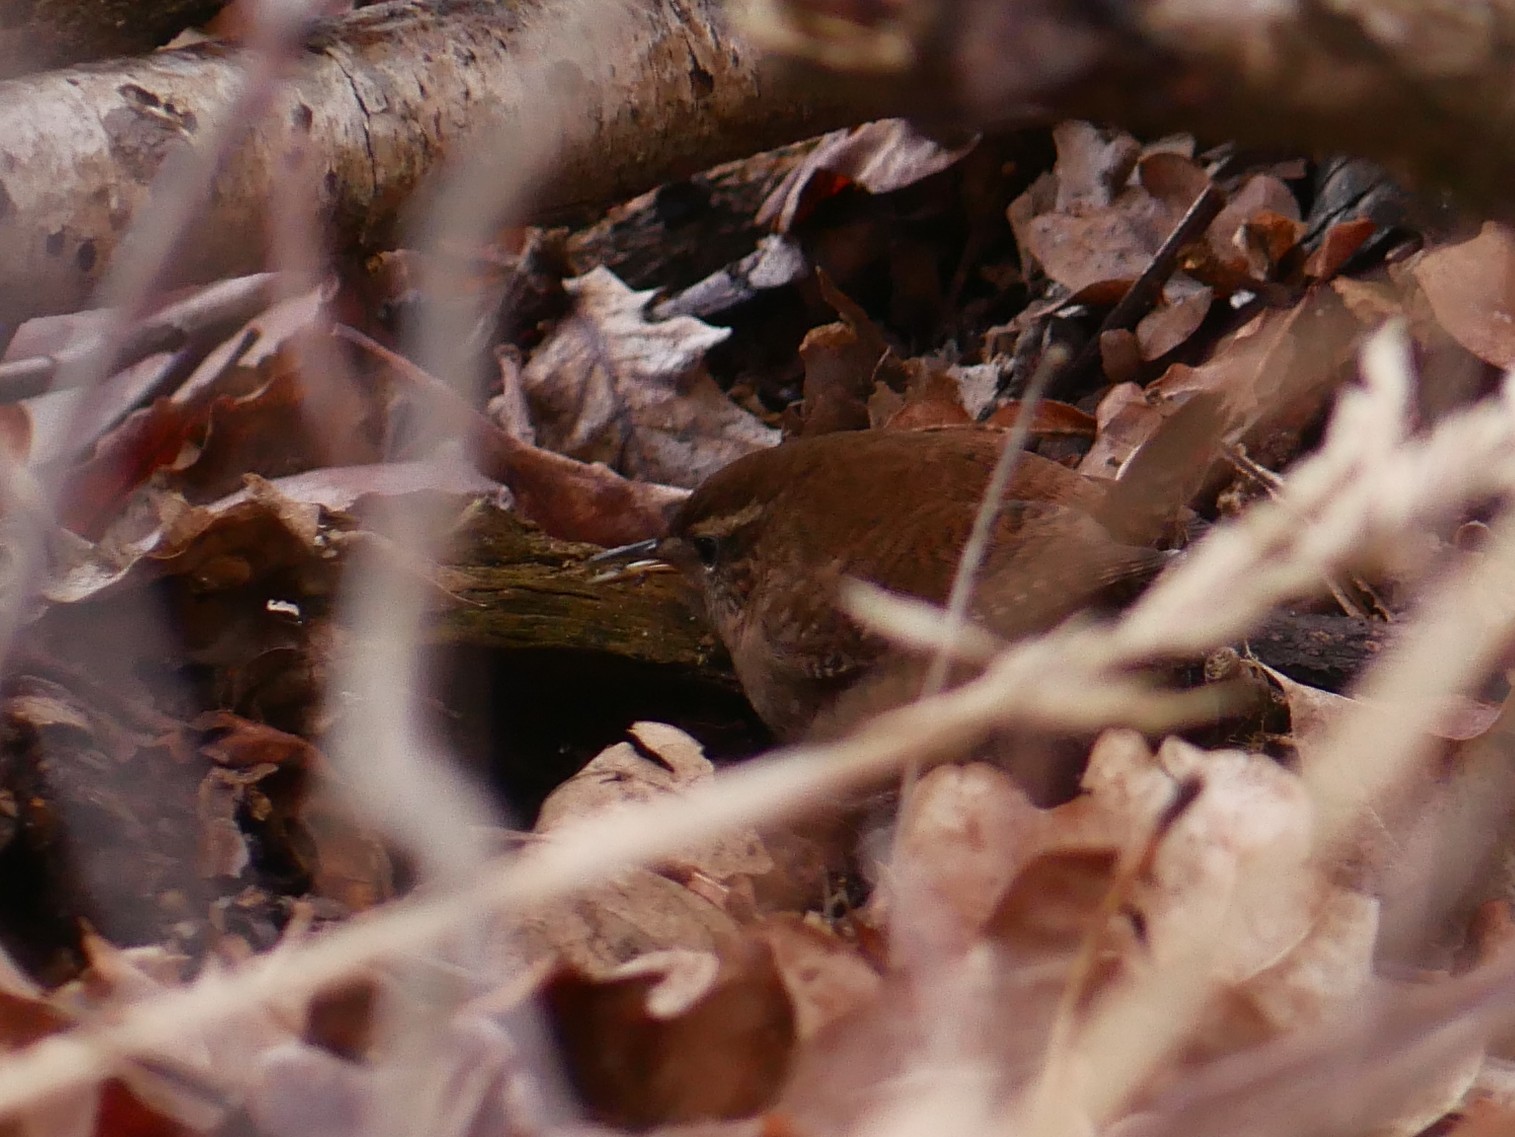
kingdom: Animalia
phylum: Chordata
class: Aves
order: Passeriformes
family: Troglodytidae
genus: Troglodytes
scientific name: Troglodytes troglodytes
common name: Eurasian wren
